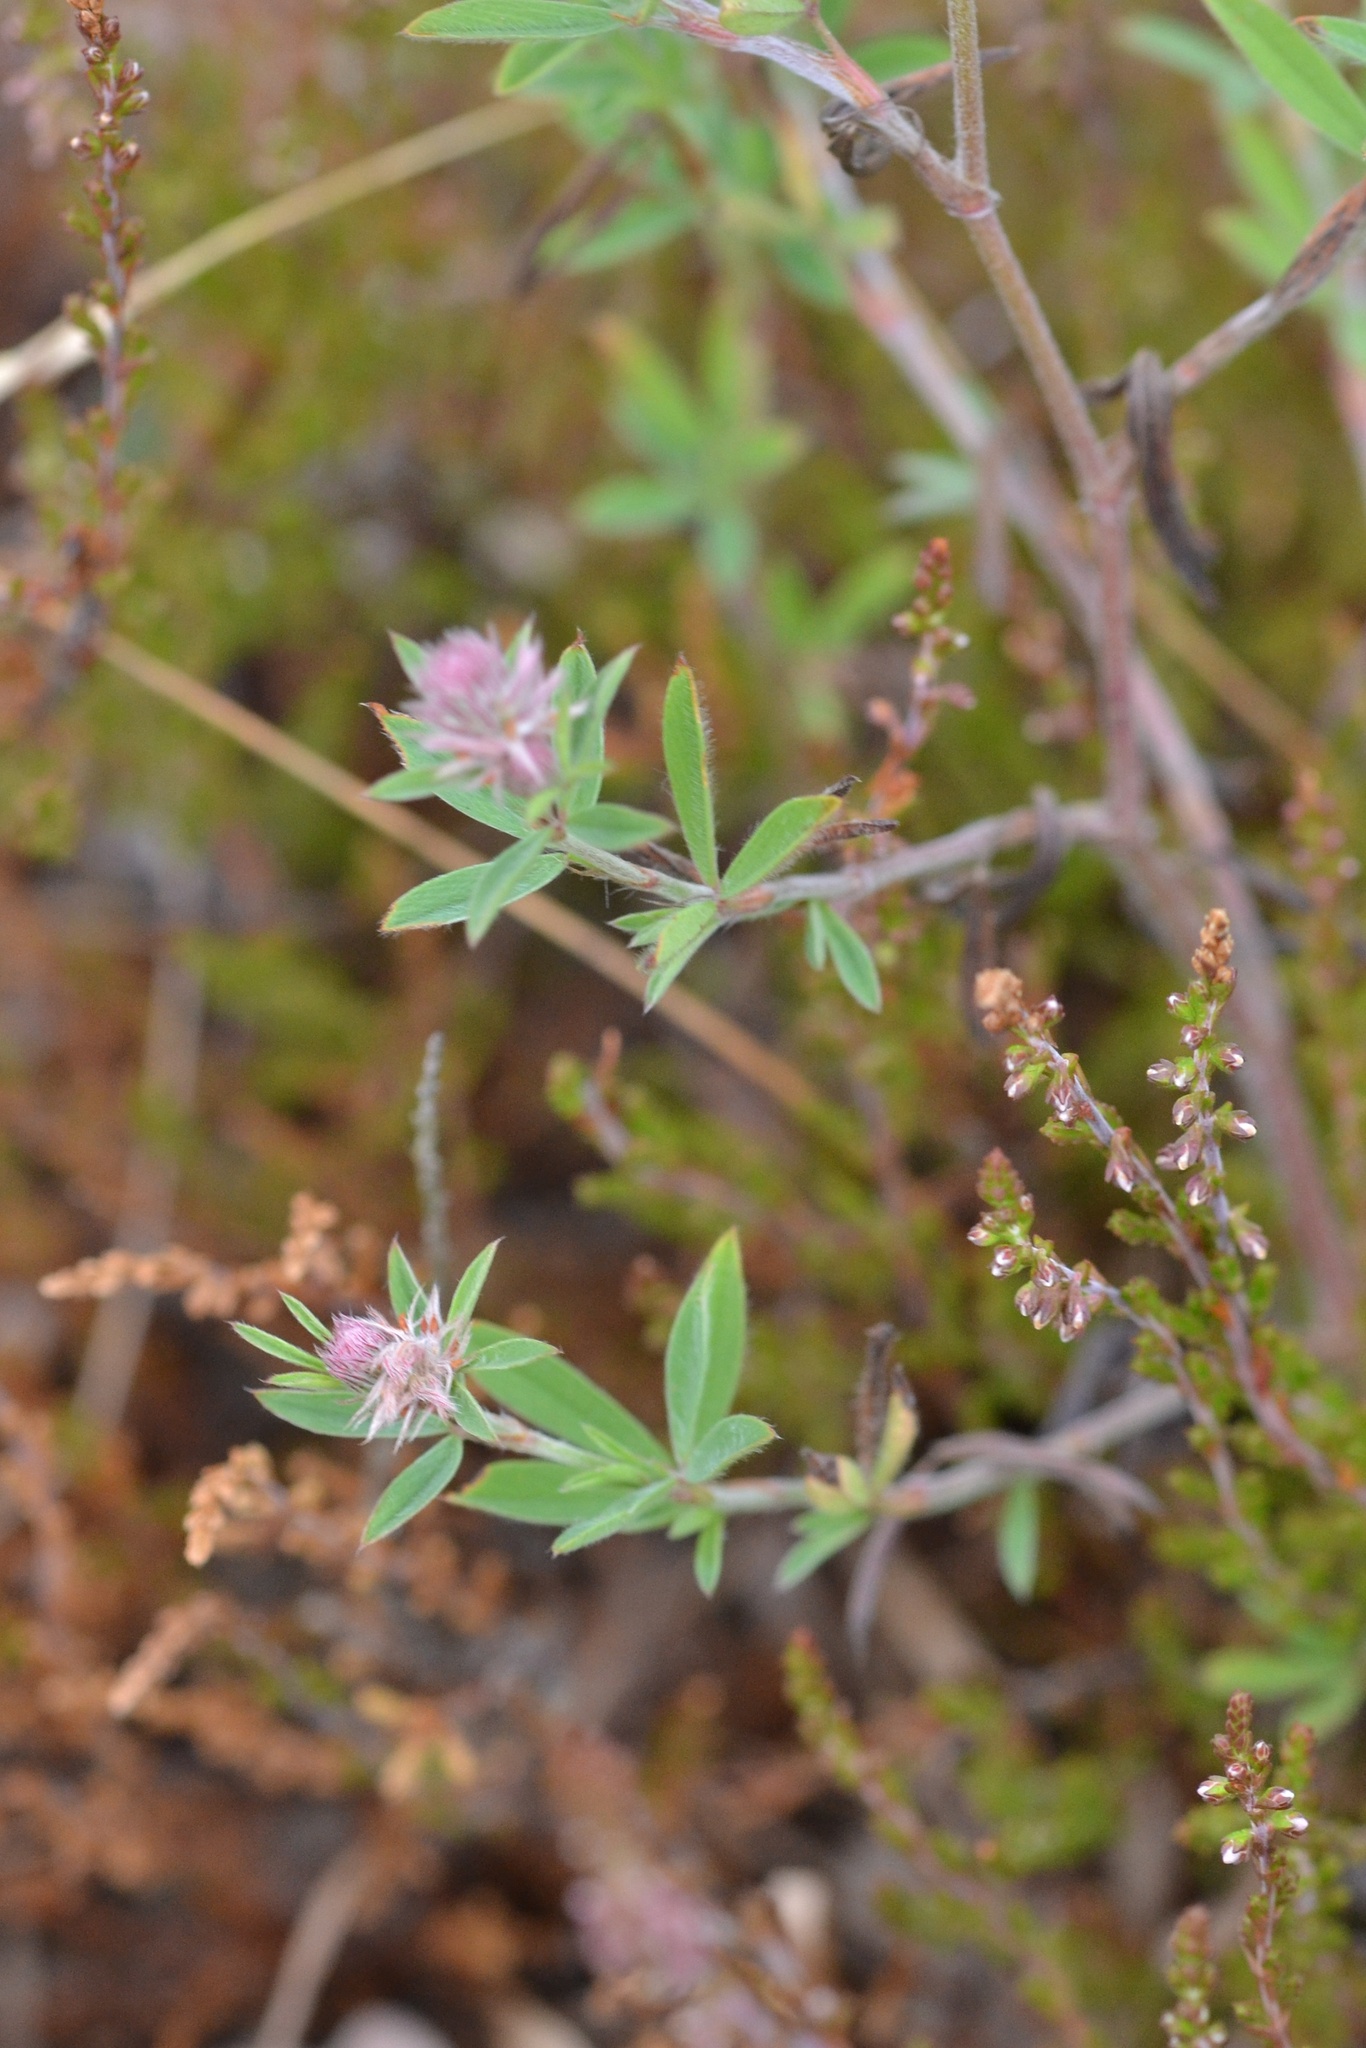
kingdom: Plantae
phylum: Tracheophyta
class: Magnoliopsida
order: Fabales
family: Fabaceae
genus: Trifolium
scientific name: Trifolium arvense
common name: Hare's-foot clover
